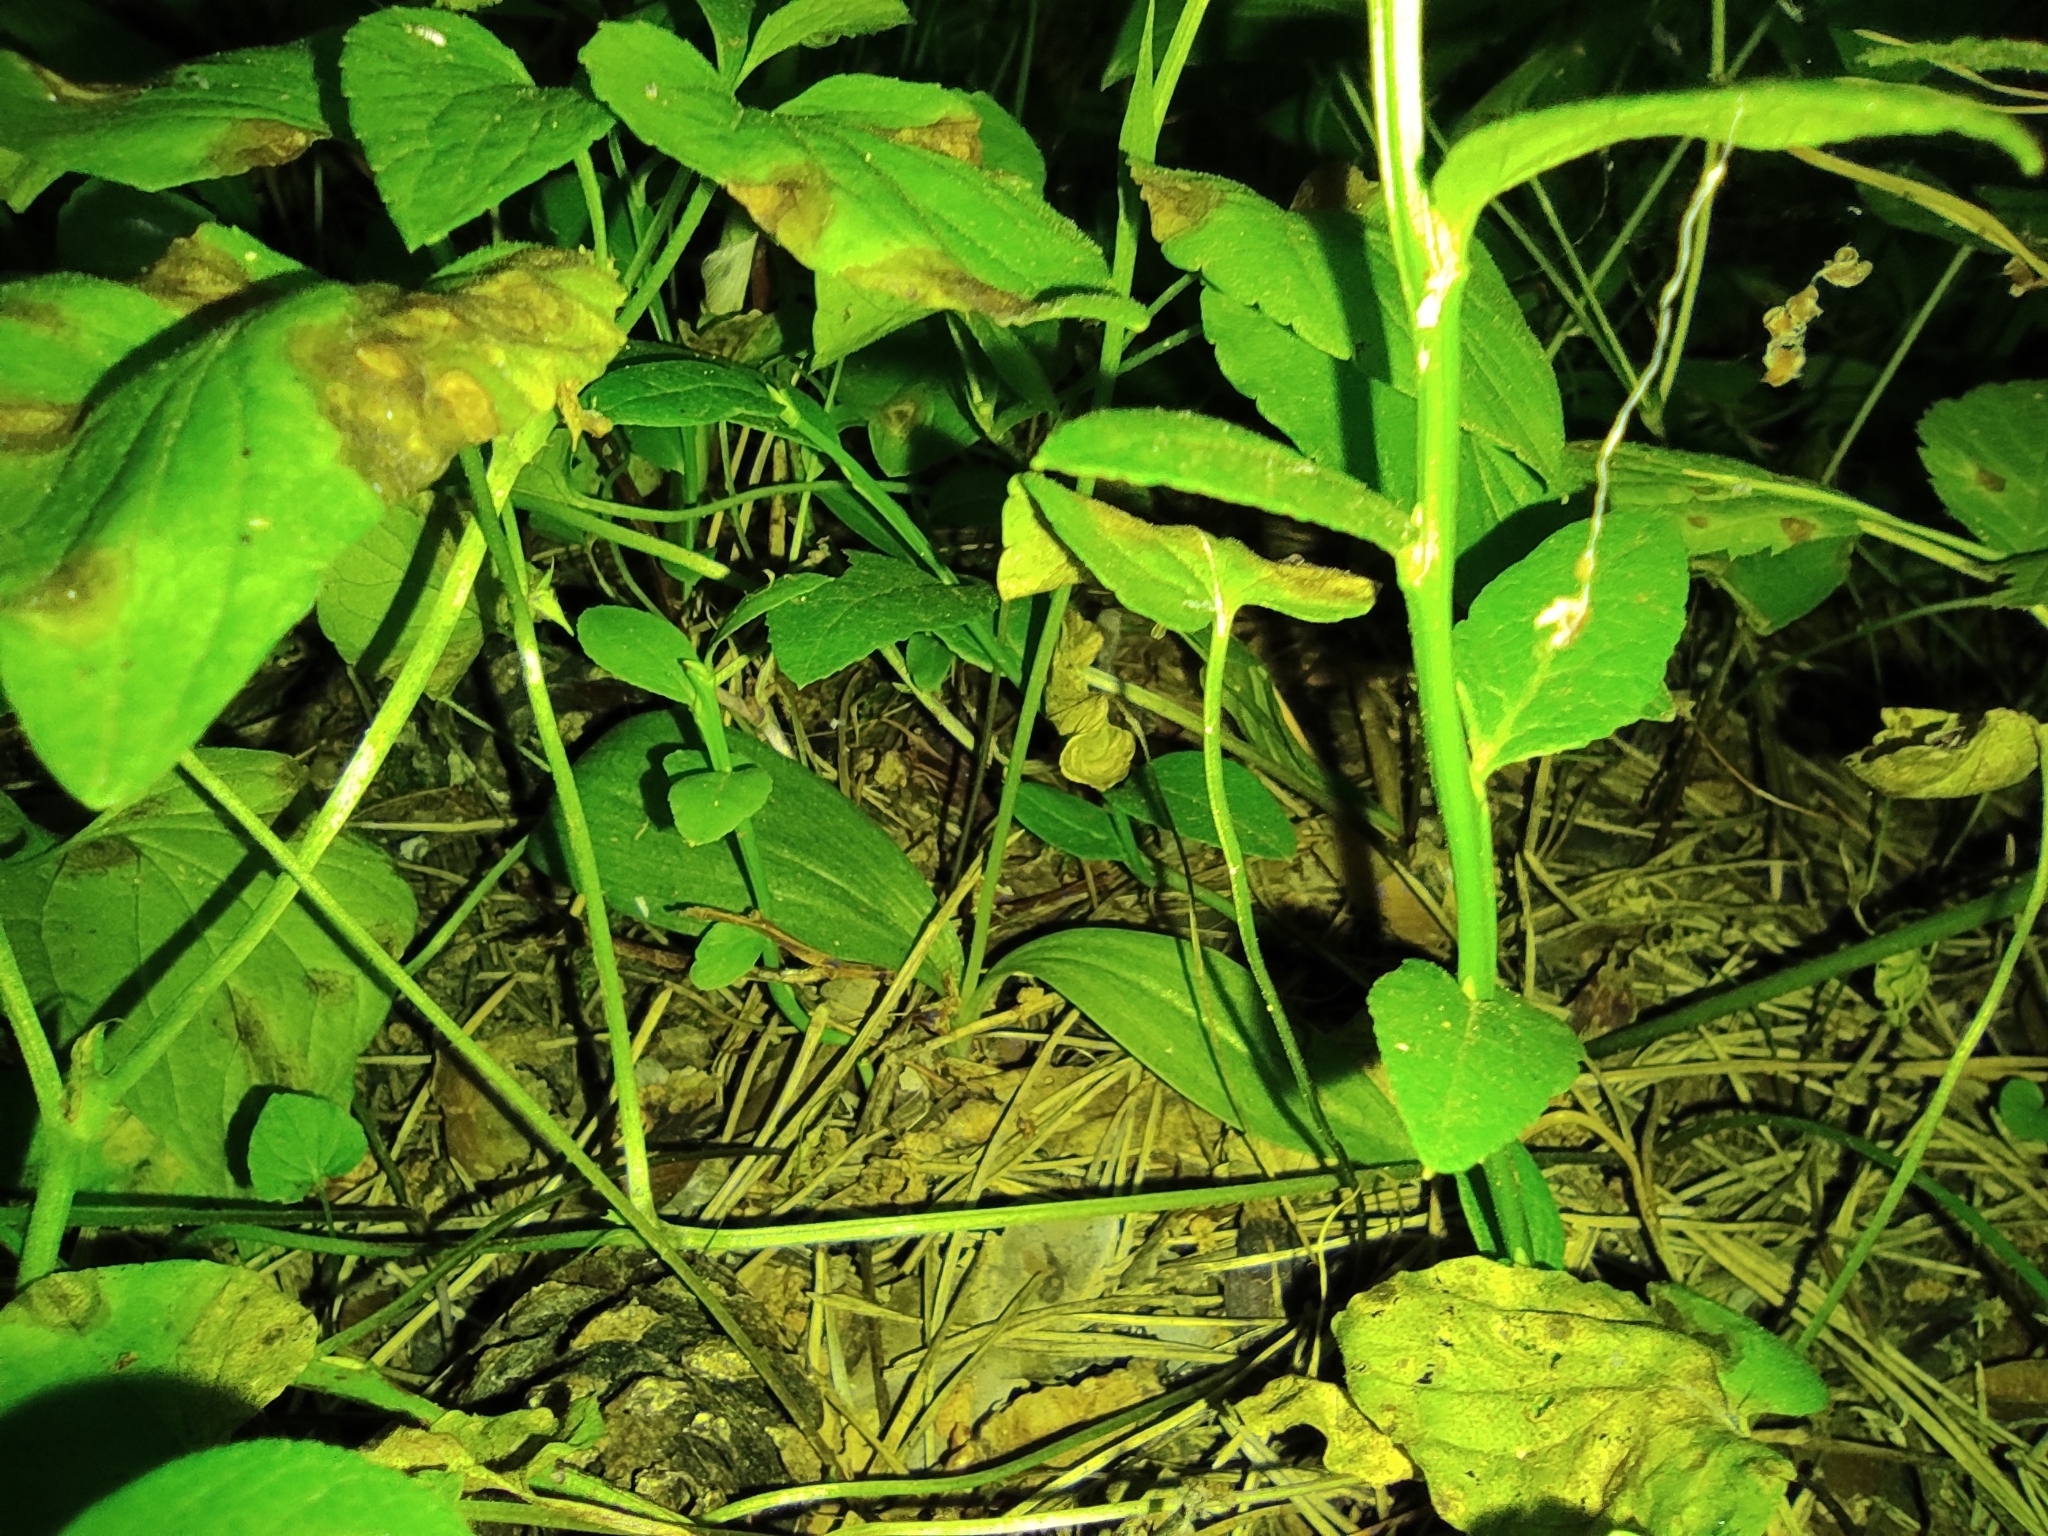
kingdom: Plantae
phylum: Tracheophyta
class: Liliopsida
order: Asparagales
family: Orchidaceae
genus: Hemipilia
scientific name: Hemipilia cucullata
